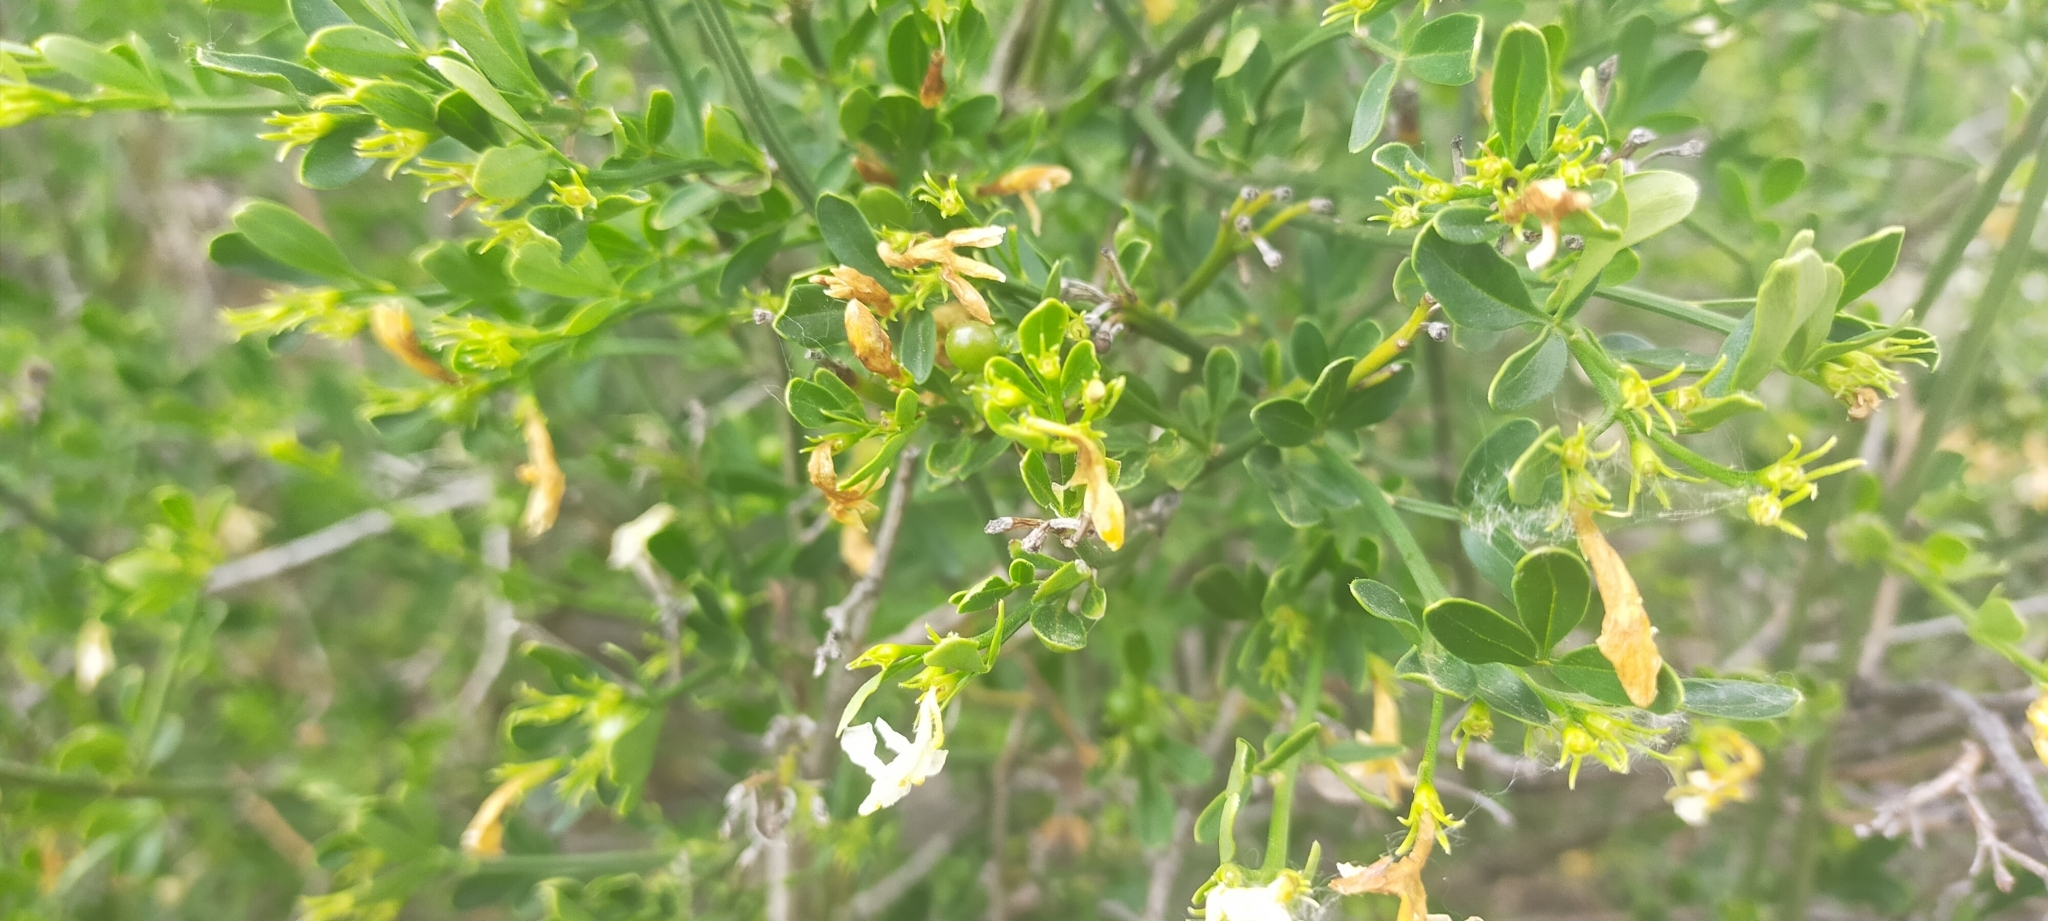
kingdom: Plantae
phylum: Tracheophyta
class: Magnoliopsida
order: Lamiales
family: Oleaceae
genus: Chrysojasminum
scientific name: Chrysojasminum fruticans
